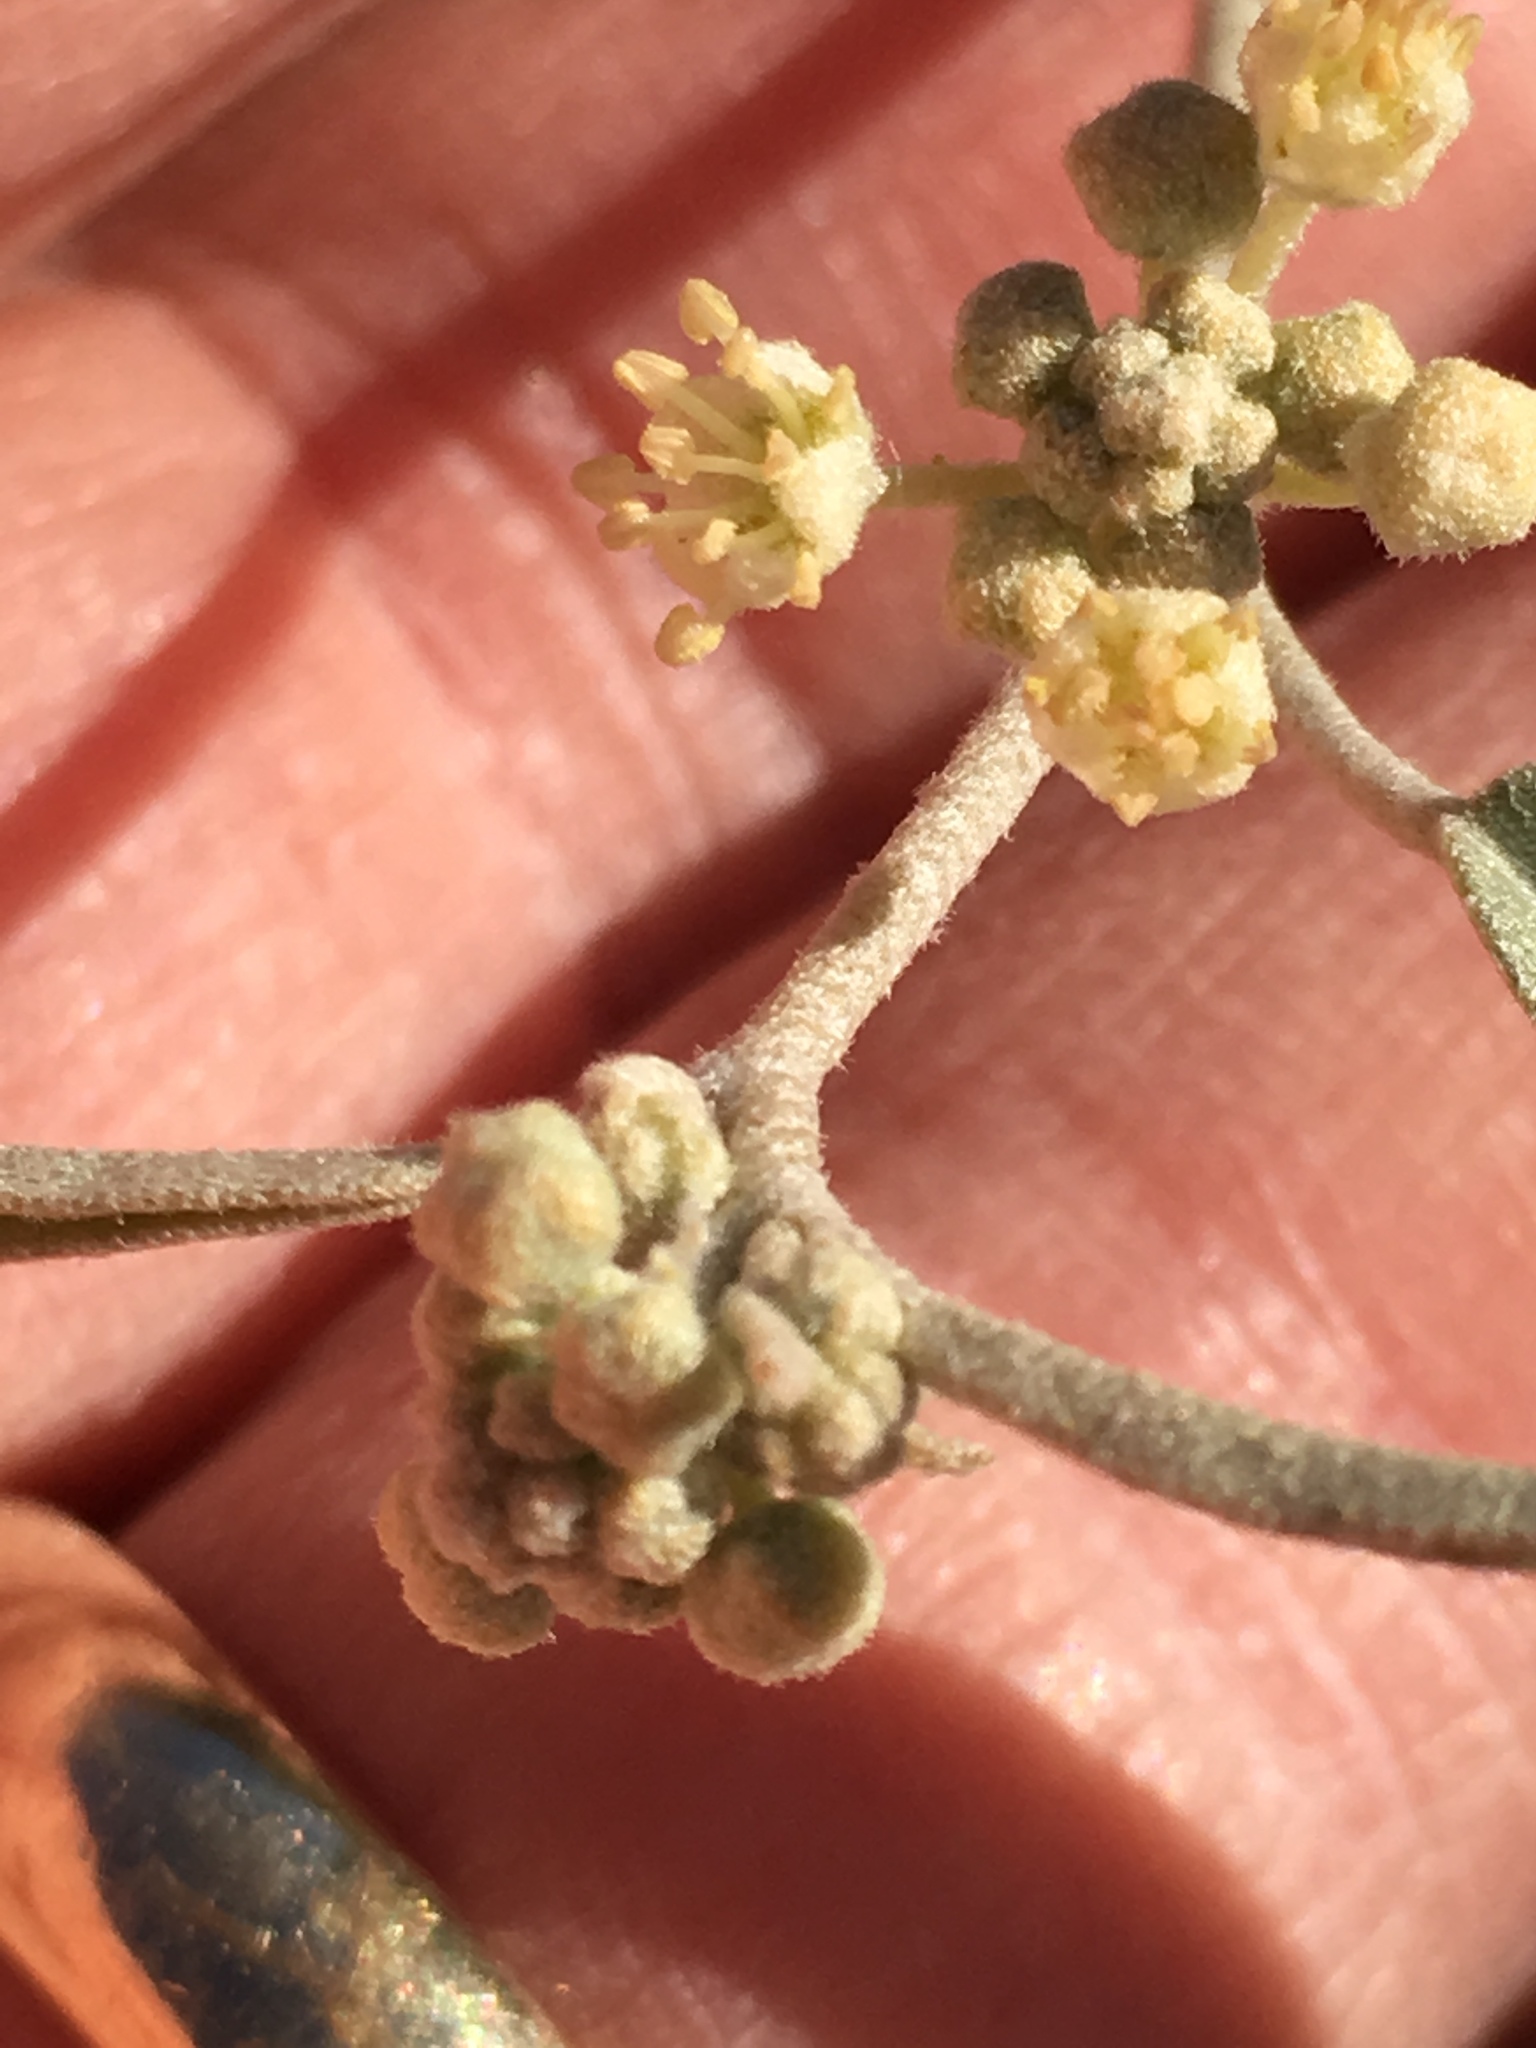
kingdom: Plantae
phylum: Tracheophyta
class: Magnoliopsida
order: Malpighiales
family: Euphorbiaceae
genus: Croton
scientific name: Croton californicus
